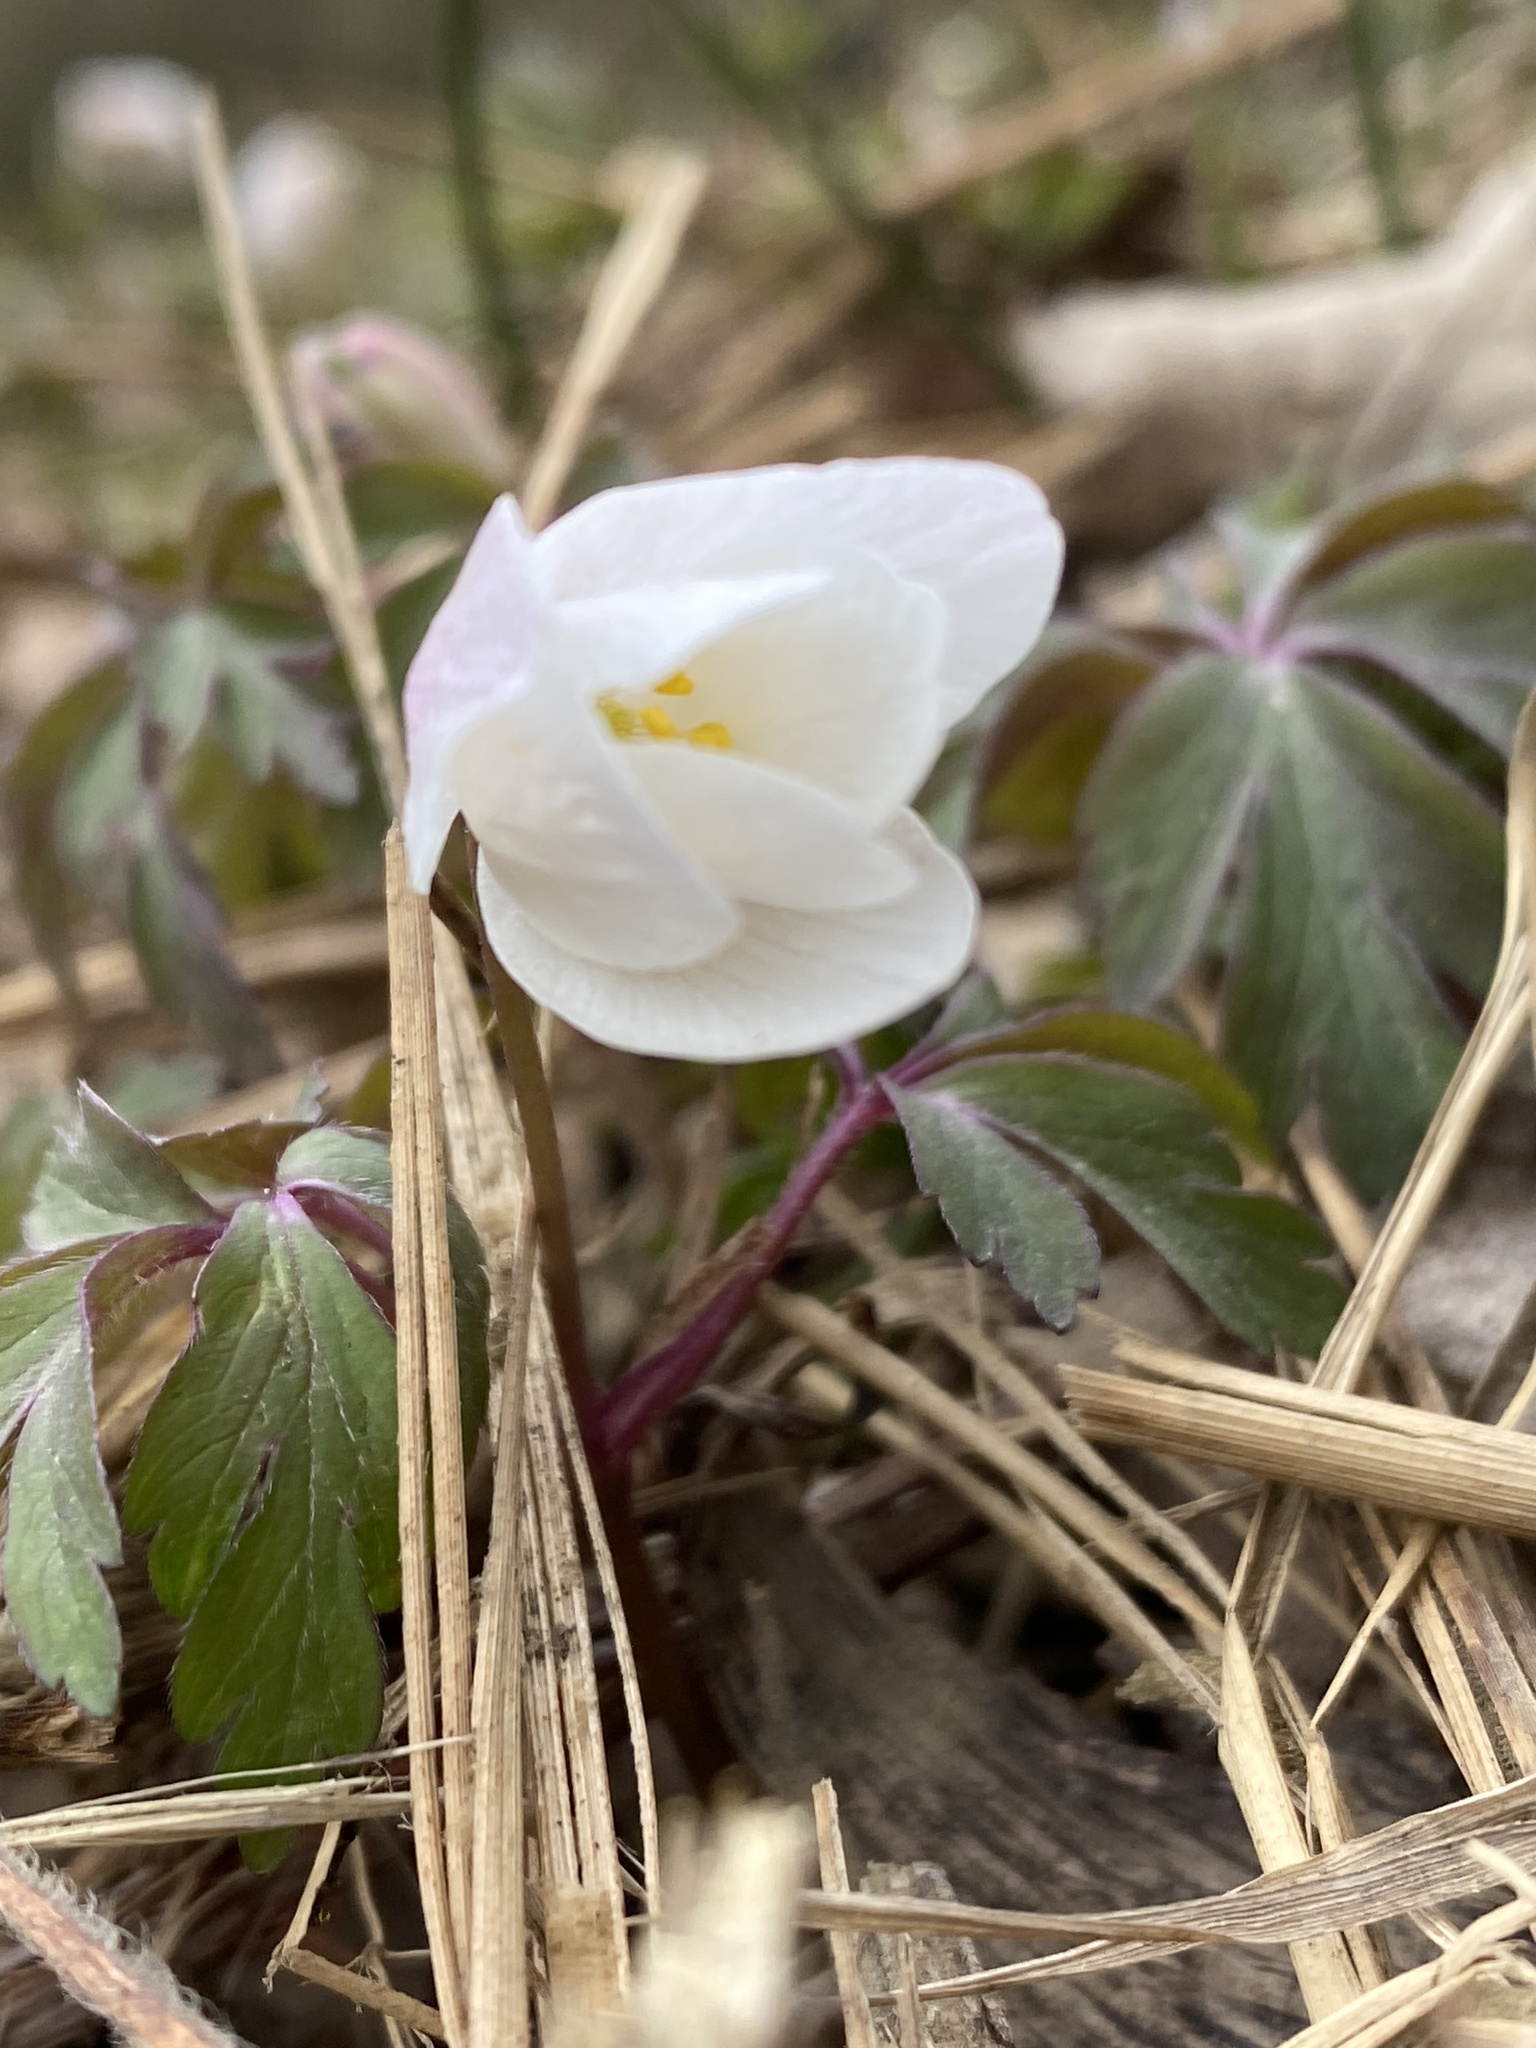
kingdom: Plantae
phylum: Tracheophyta
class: Magnoliopsida
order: Ranunculales
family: Ranunculaceae
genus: Anemone
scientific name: Anemone nemorosa
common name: Wood anemone
